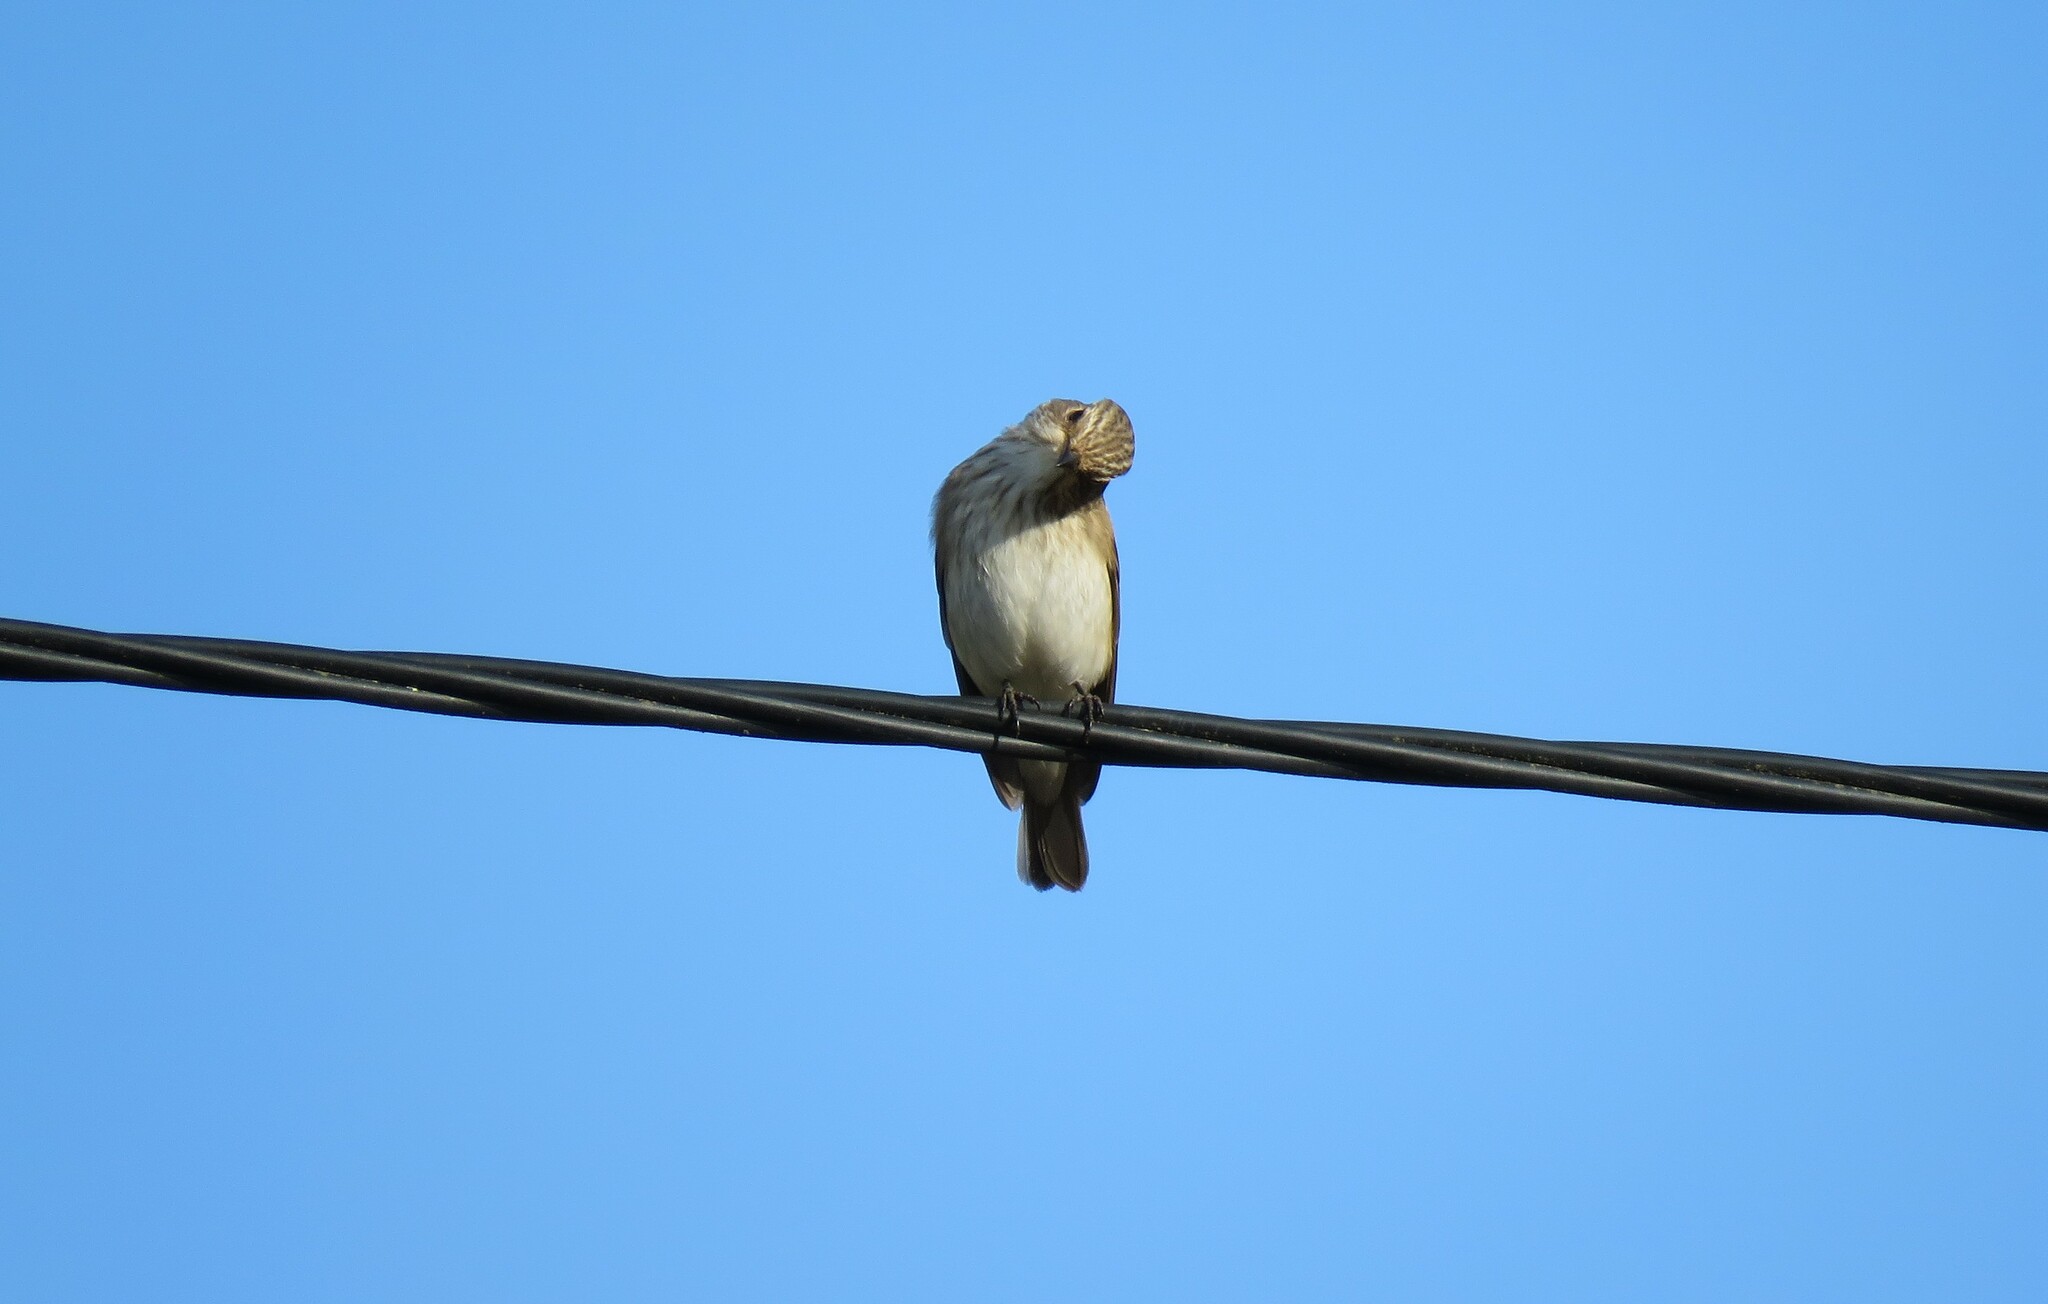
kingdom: Animalia
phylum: Chordata
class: Aves
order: Passeriformes
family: Muscicapidae
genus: Muscicapa
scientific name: Muscicapa striata
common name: Spotted flycatcher
